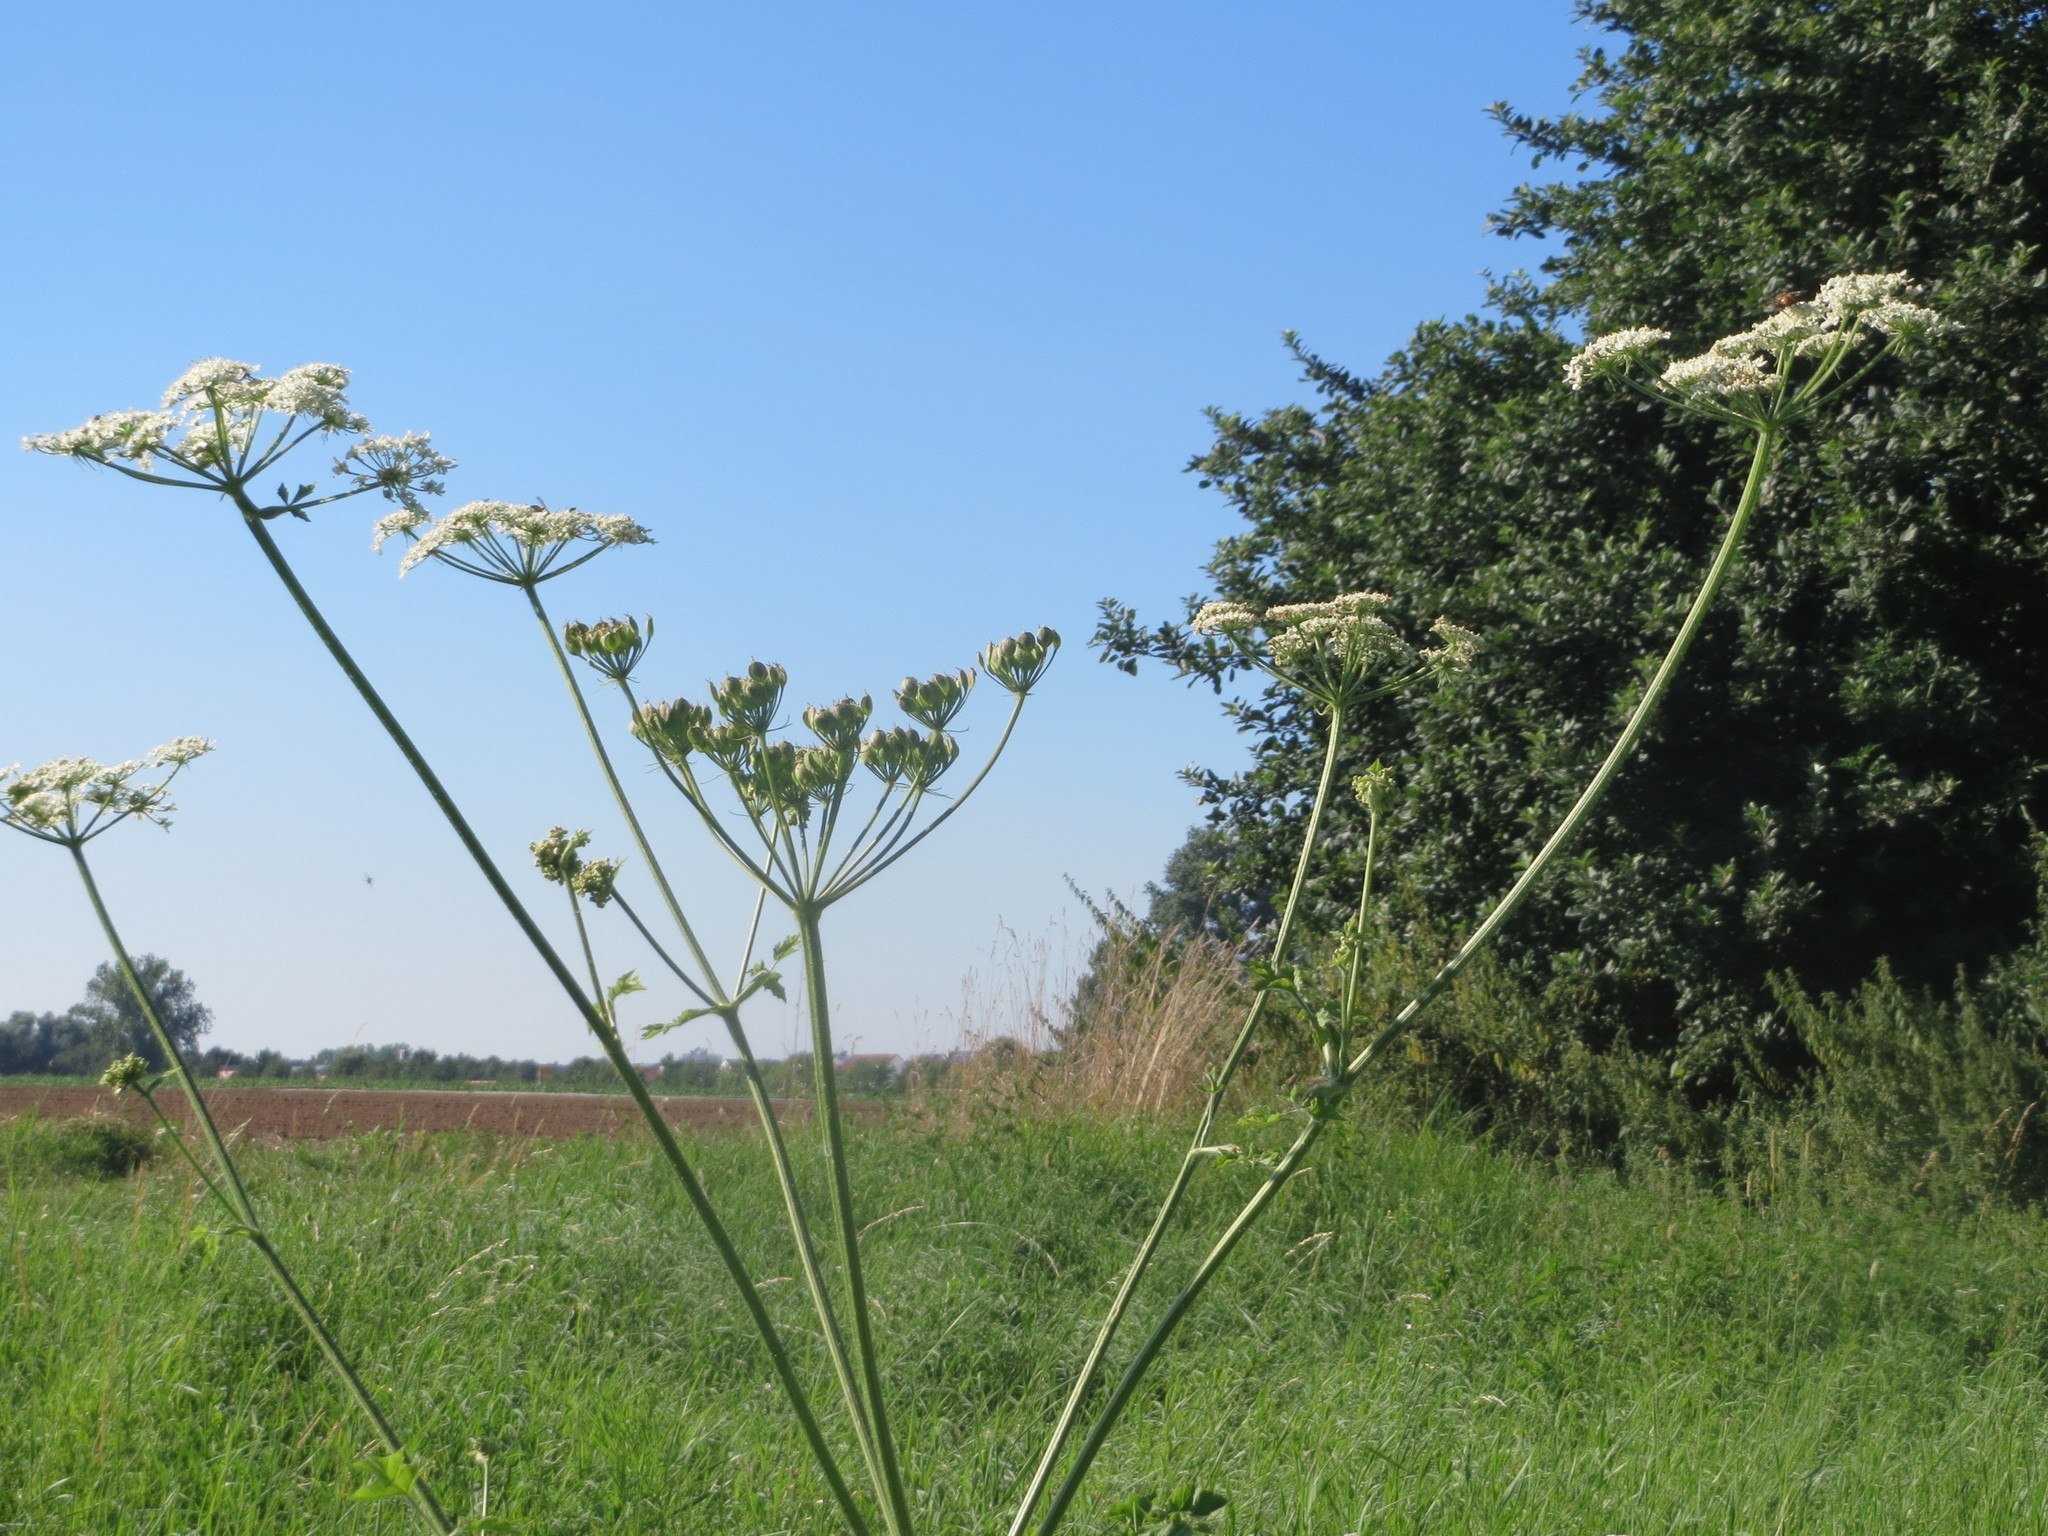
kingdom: Plantae
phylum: Tracheophyta
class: Magnoliopsida
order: Apiales
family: Apiaceae
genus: Heracleum
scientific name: Heracleum sphondylium
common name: Hogweed
